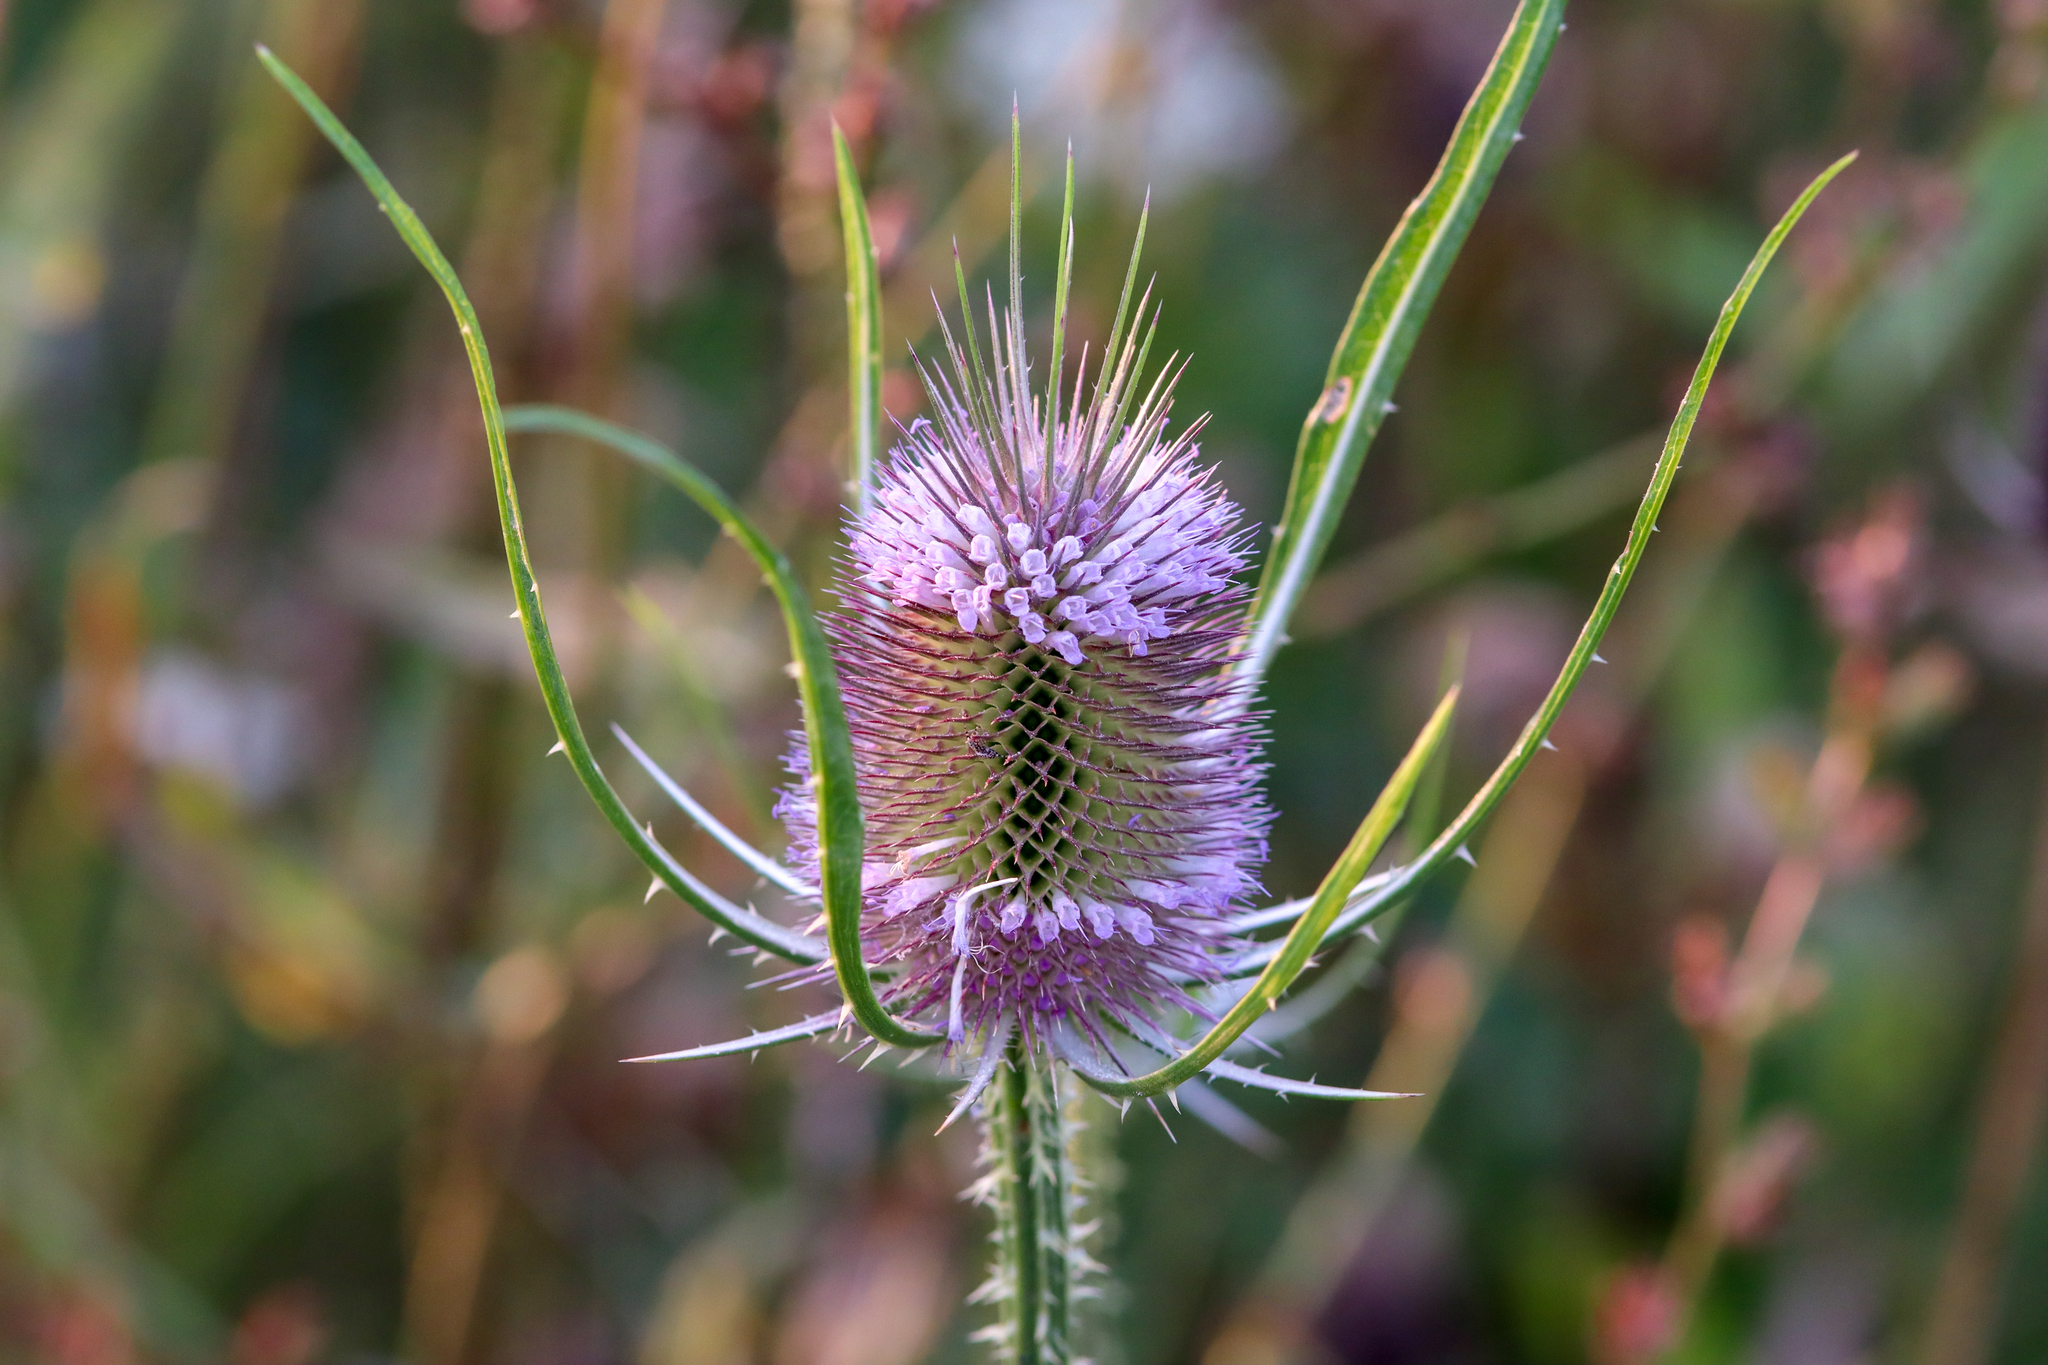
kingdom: Plantae
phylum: Tracheophyta
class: Magnoliopsida
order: Dipsacales
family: Caprifoliaceae
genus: Dipsacus
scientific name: Dipsacus fullonum
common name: Teasel
